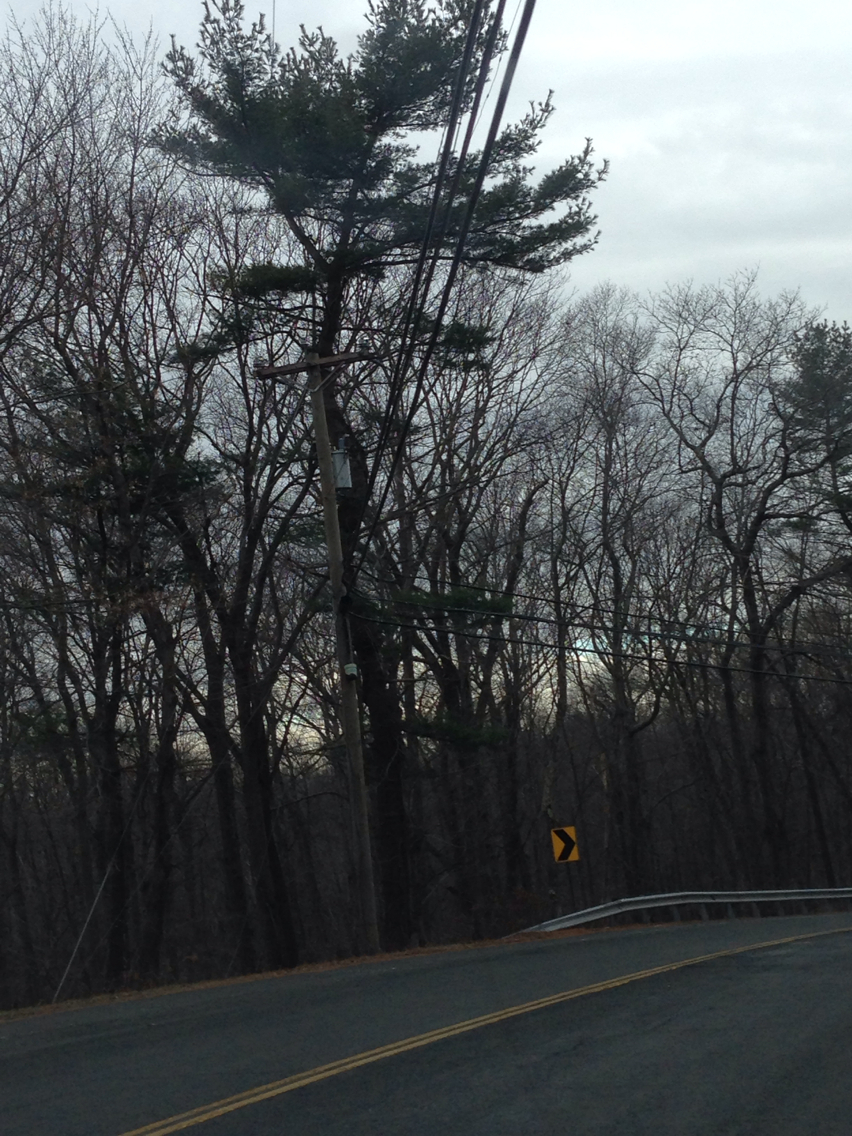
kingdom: Plantae
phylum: Tracheophyta
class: Pinopsida
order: Pinales
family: Pinaceae
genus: Pinus
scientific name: Pinus strobus
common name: Weymouth pine
